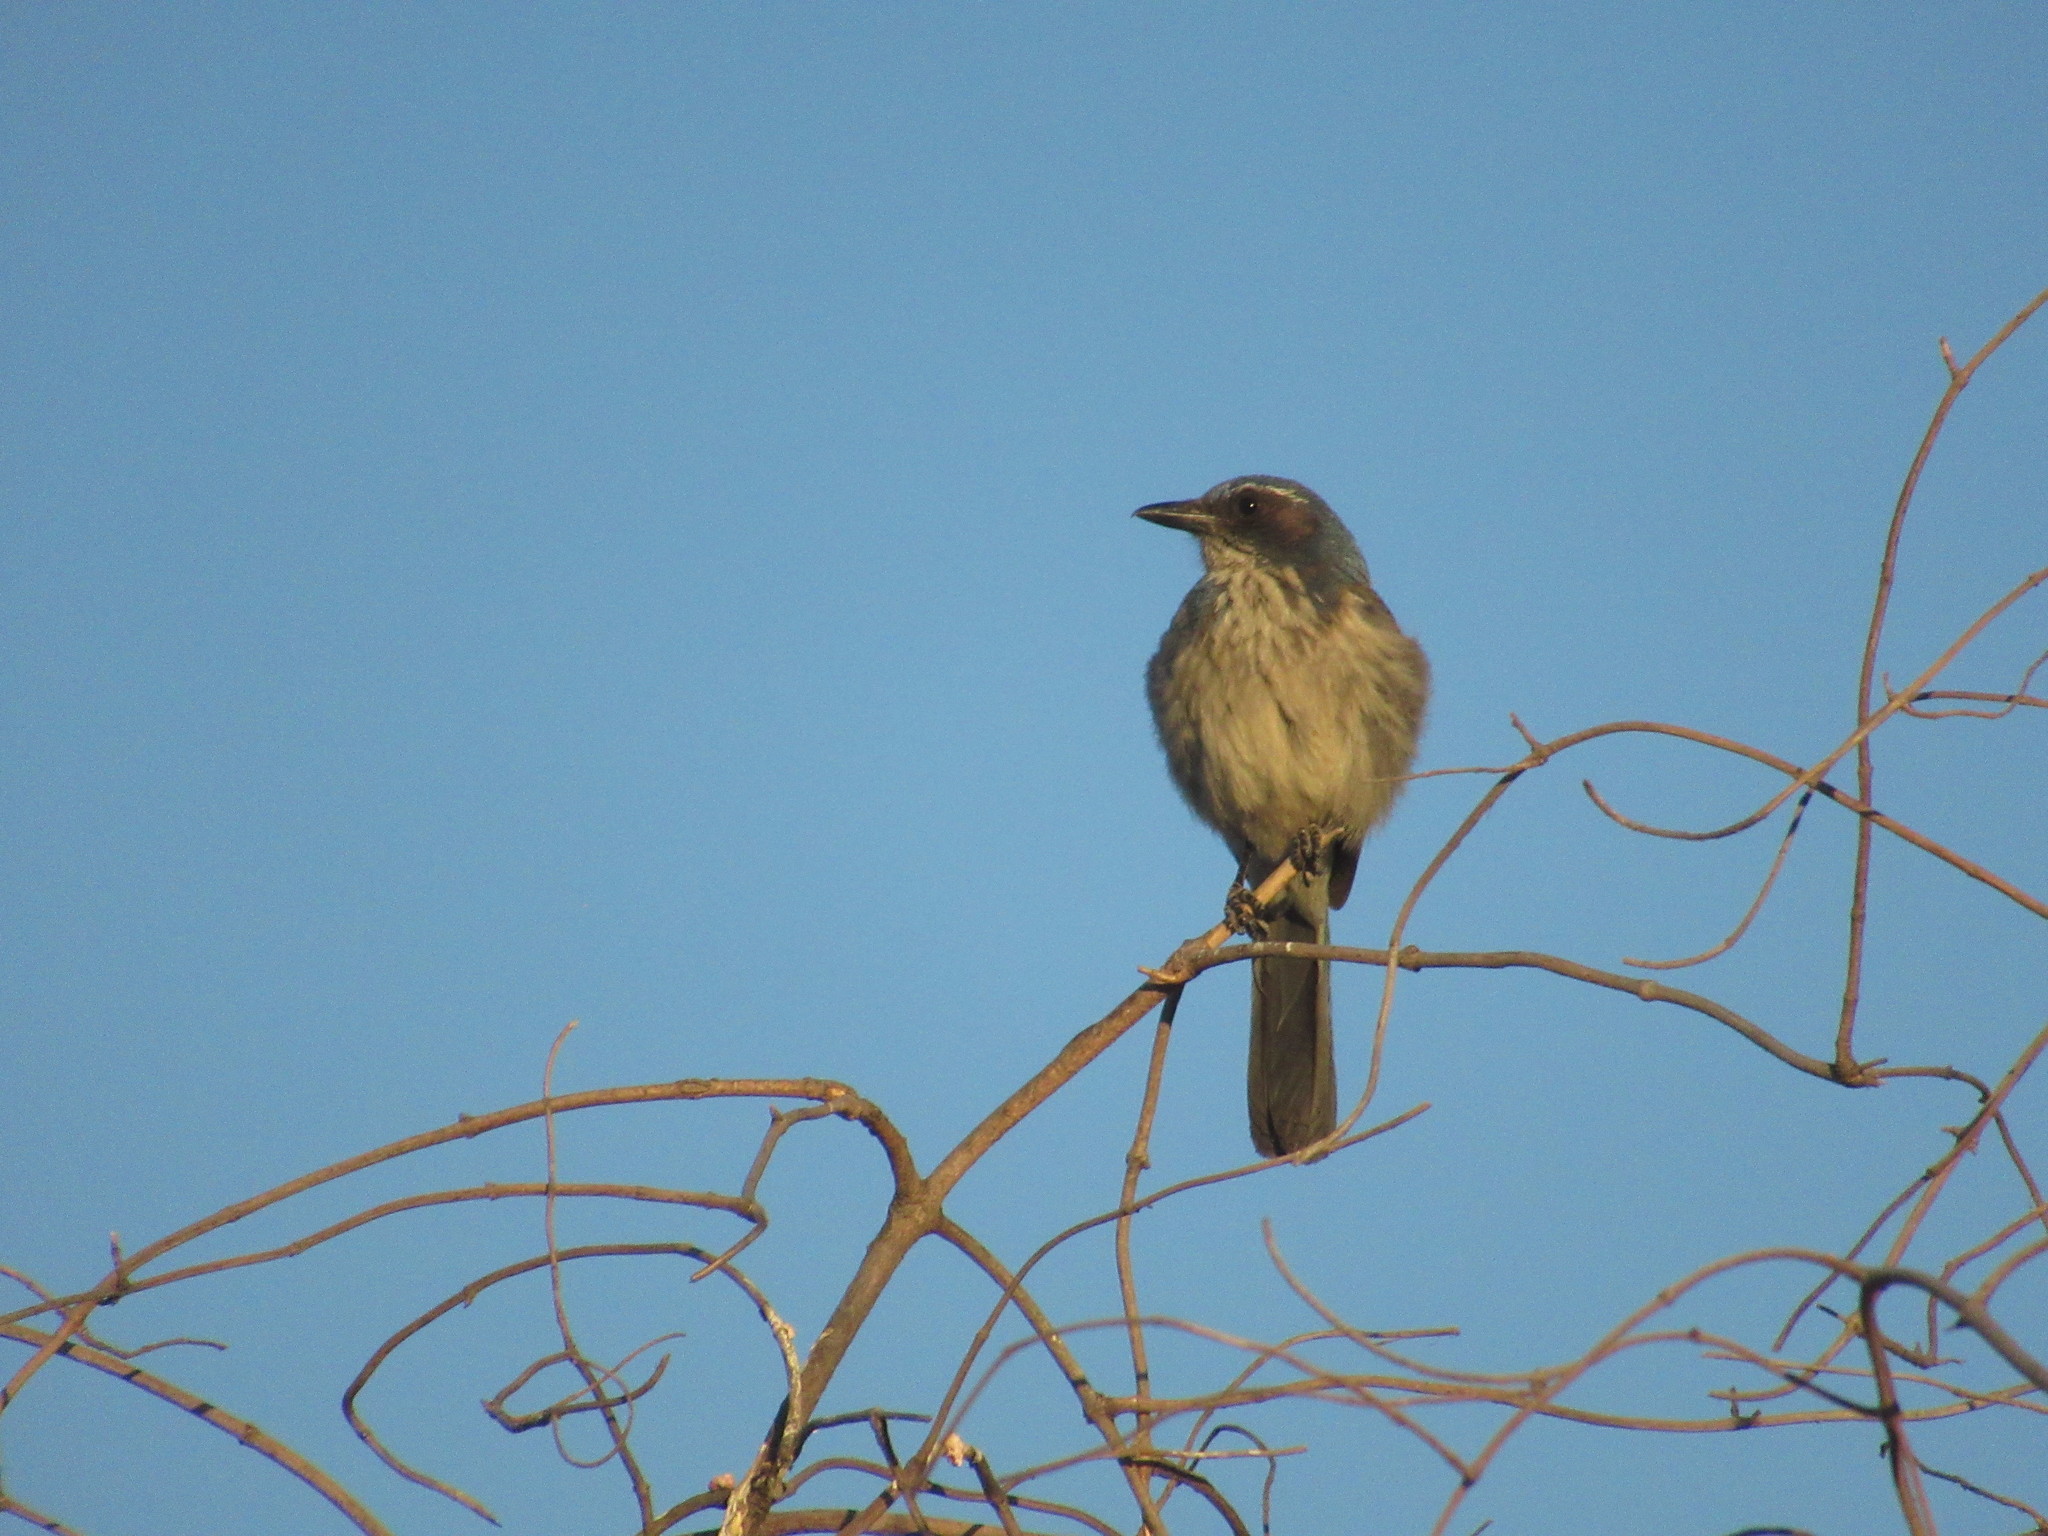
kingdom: Animalia
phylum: Chordata
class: Aves
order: Passeriformes
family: Corvidae
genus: Aphelocoma
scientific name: Aphelocoma californica
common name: California scrub-jay
